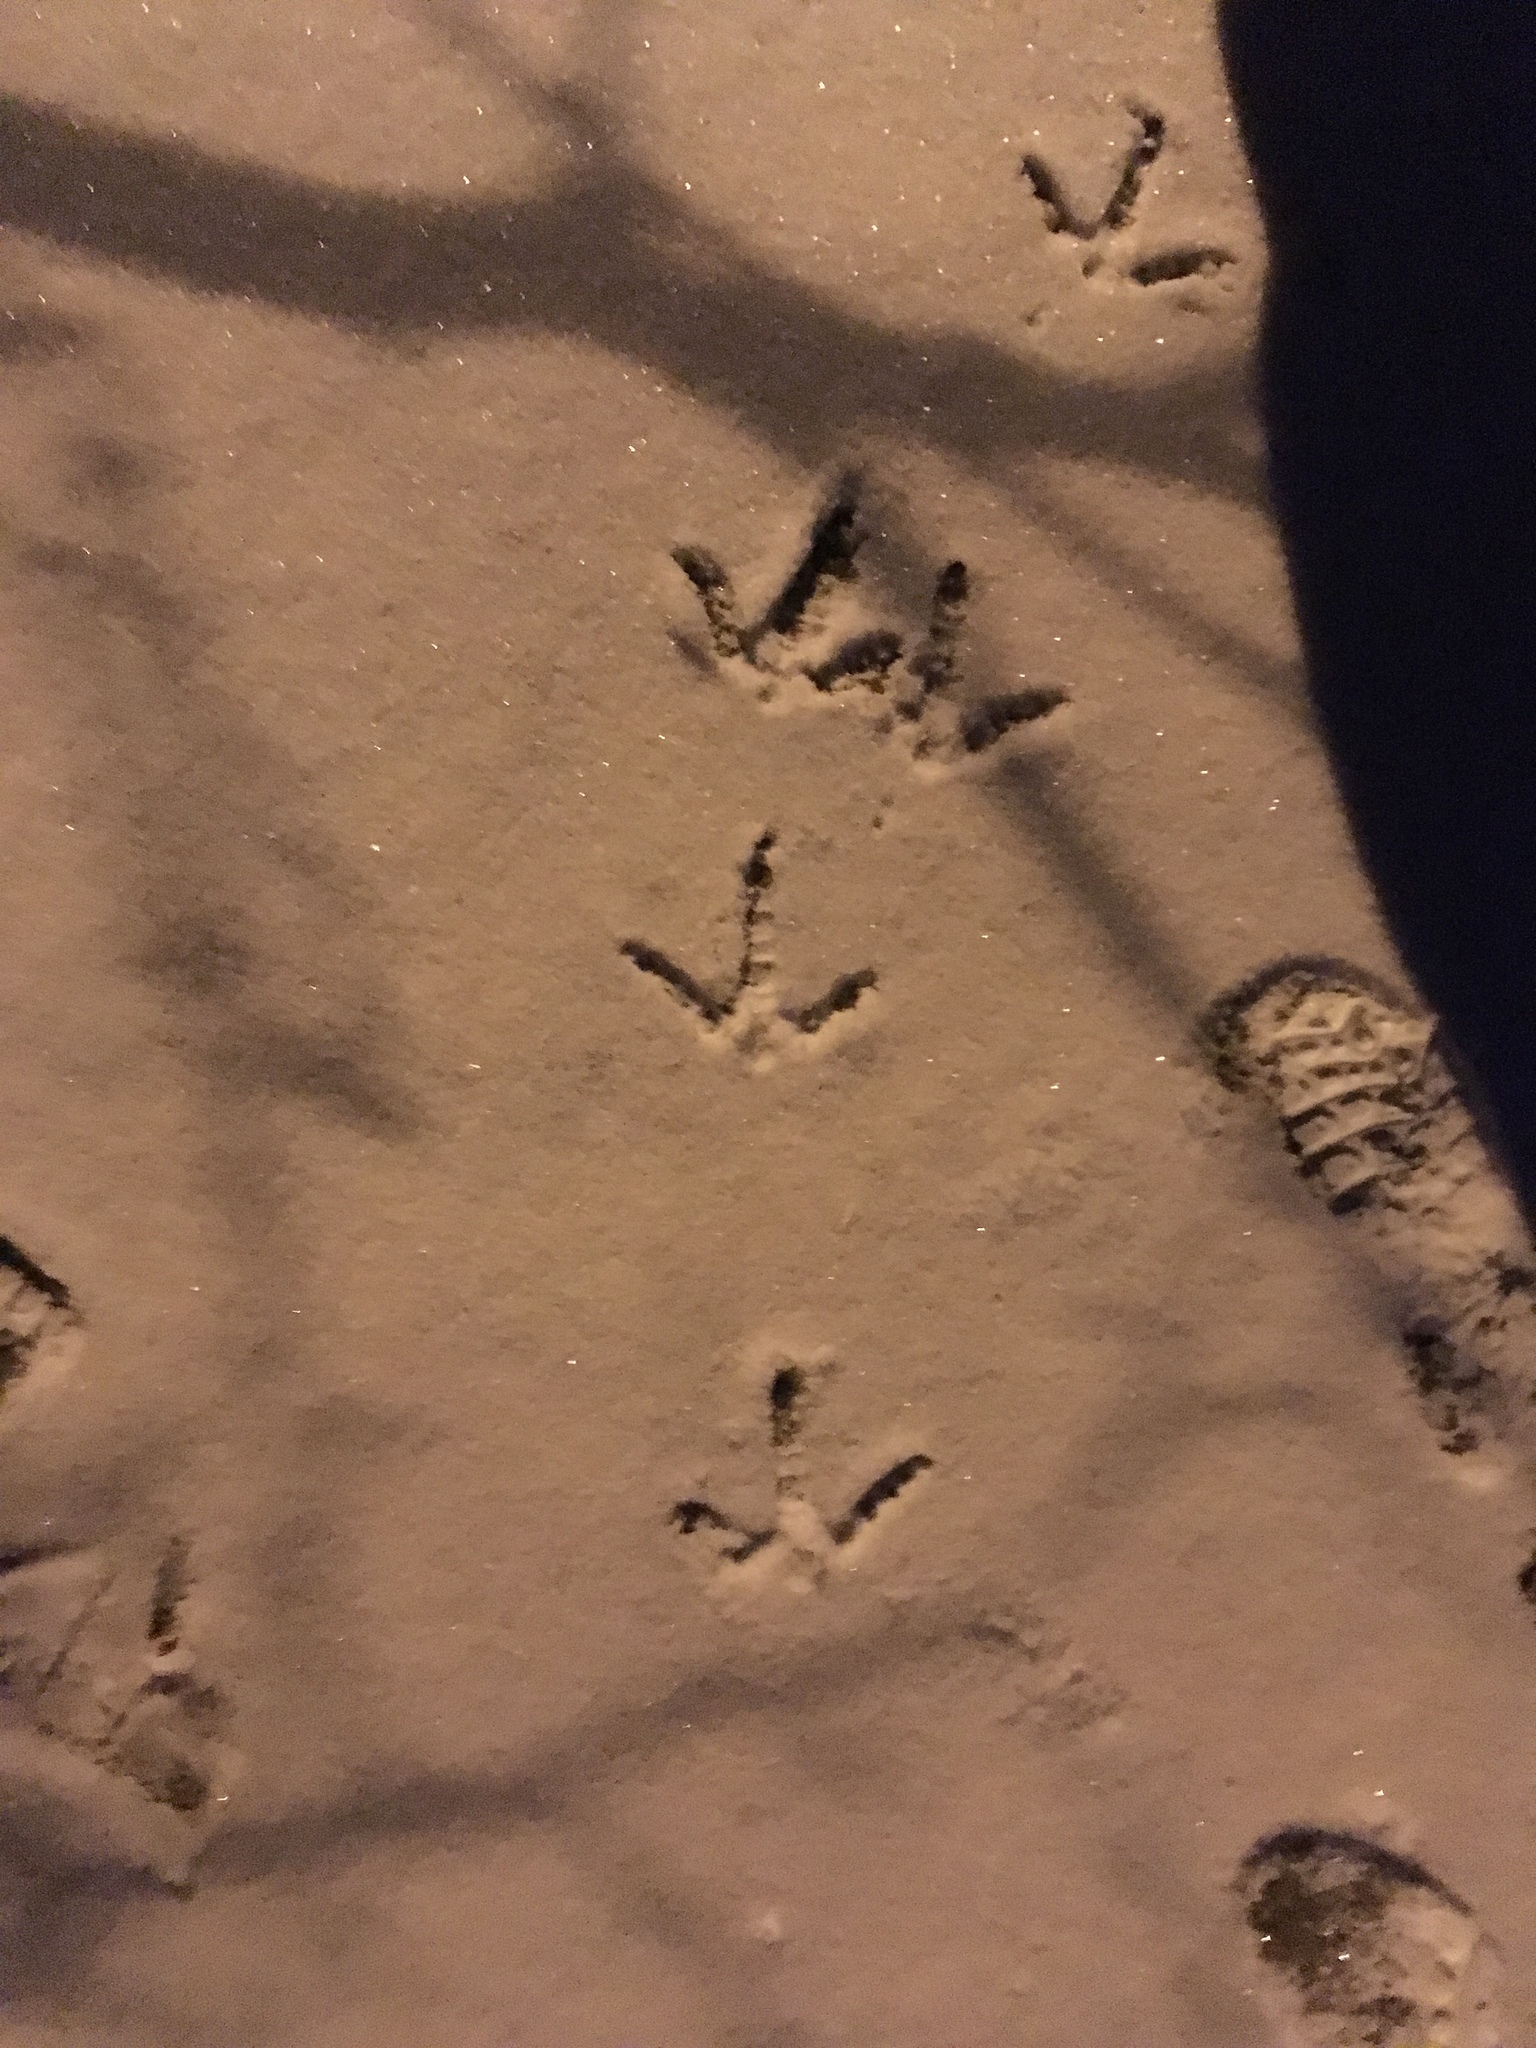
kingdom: Animalia
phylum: Chordata
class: Aves
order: Galliformes
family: Phasianidae
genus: Meleagris
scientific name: Meleagris gallopavo
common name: Wild turkey
